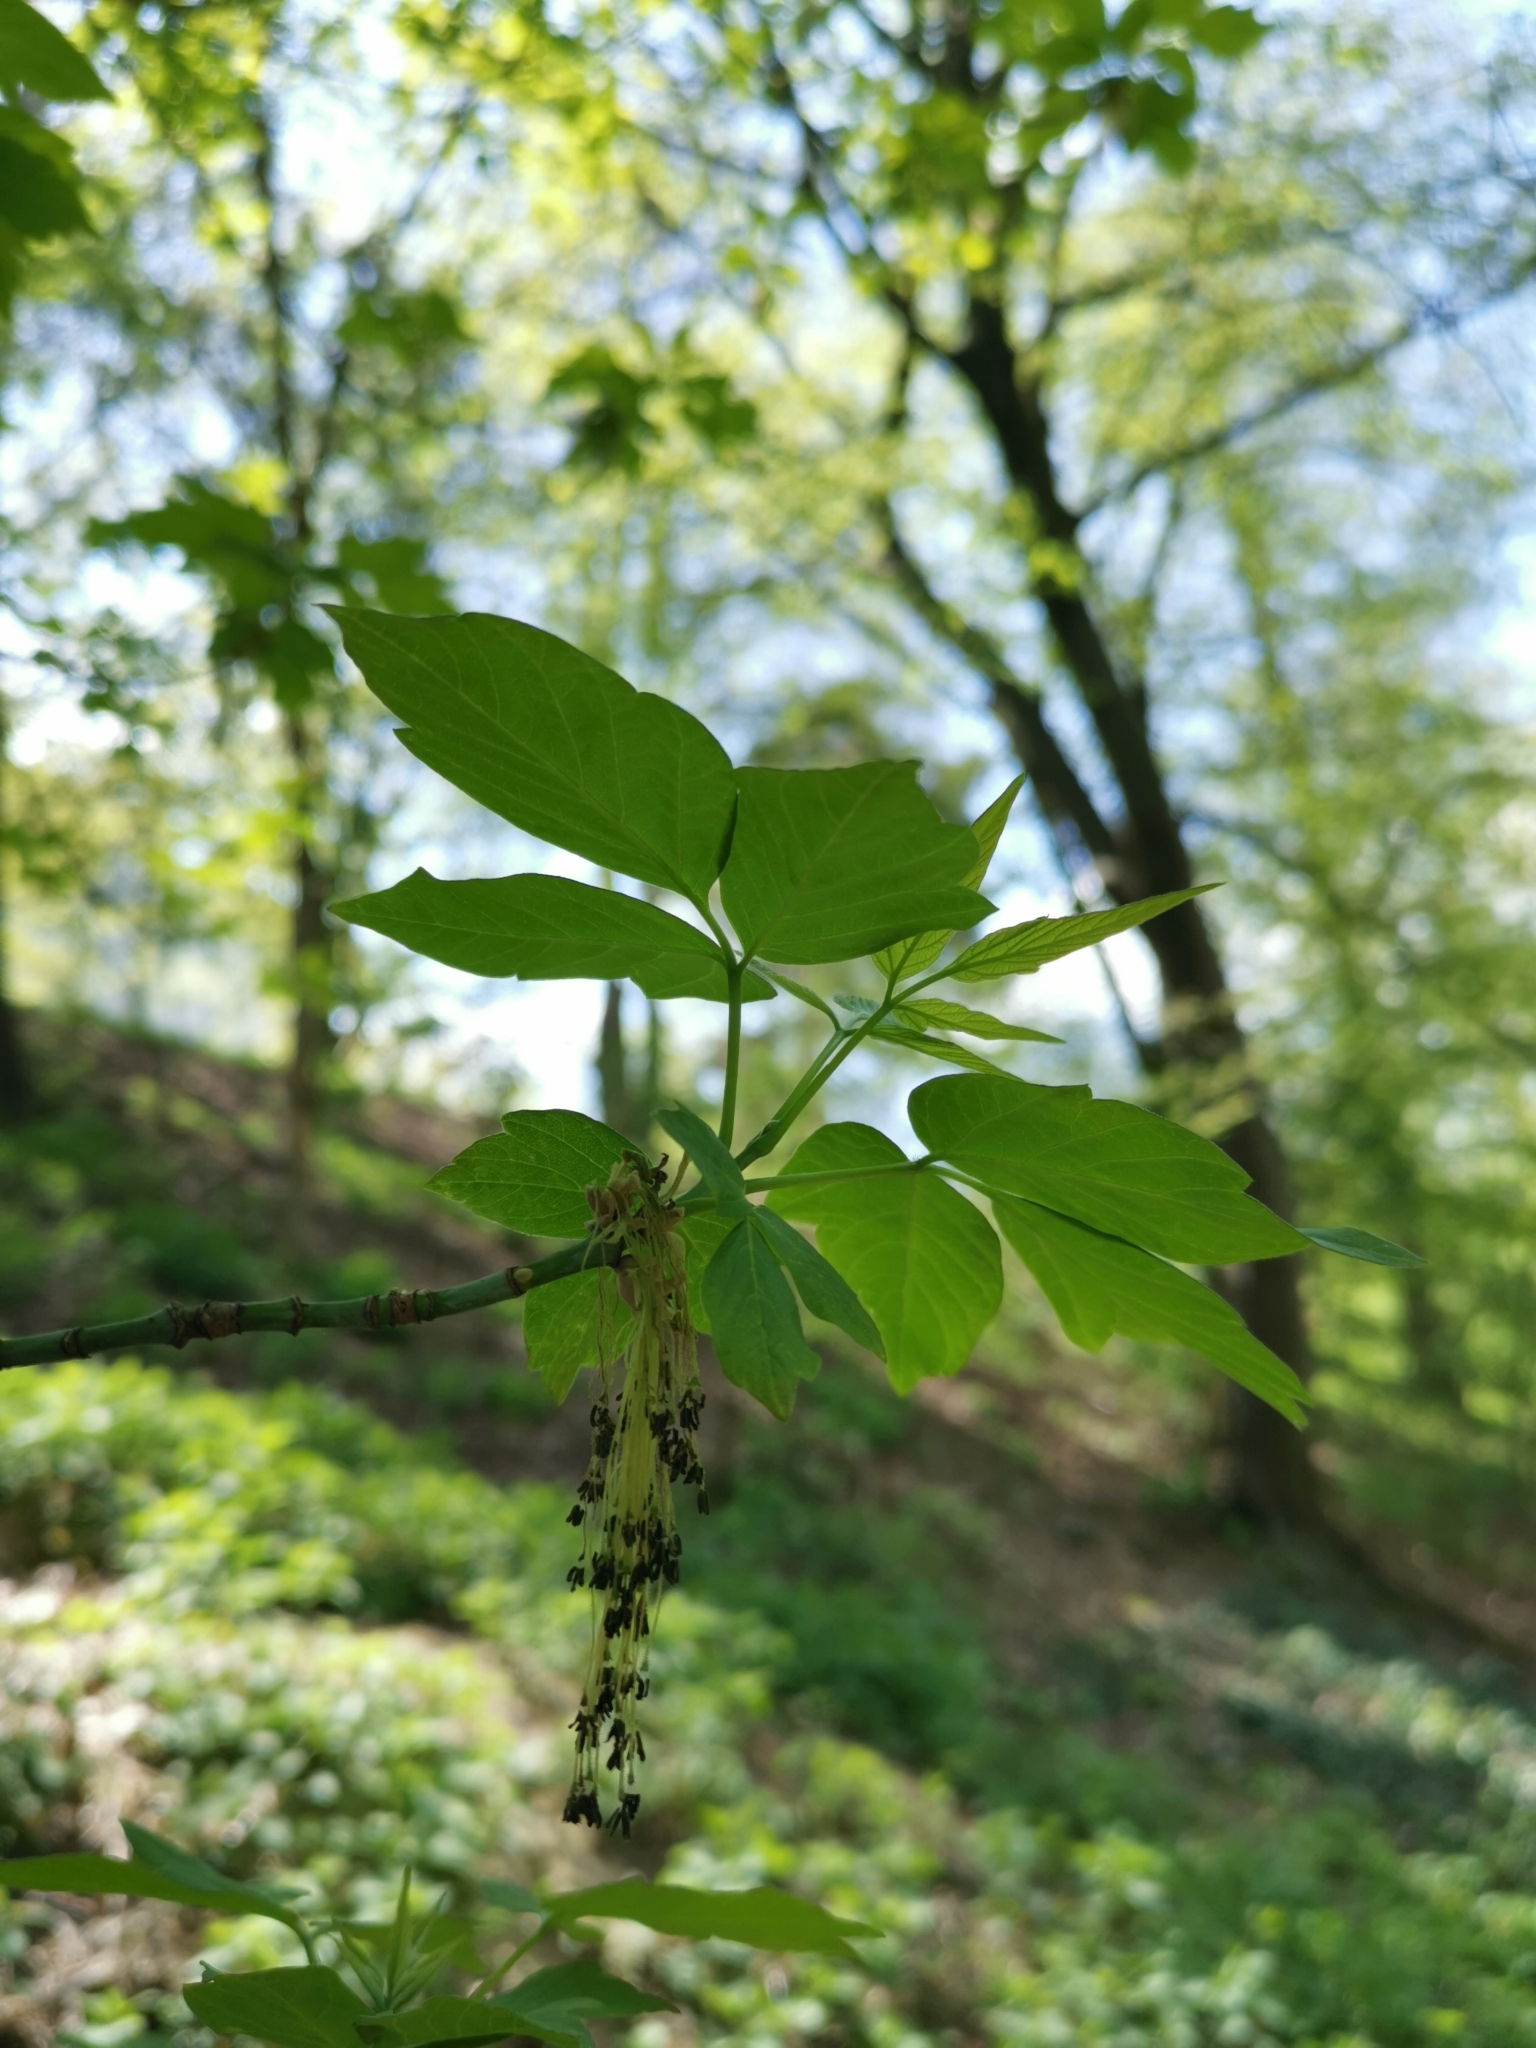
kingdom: Plantae
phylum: Tracheophyta
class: Magnoliopsida
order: Sapindales
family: Sapindaceae
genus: Acer
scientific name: Acer negundo
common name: Ashleaf maple
